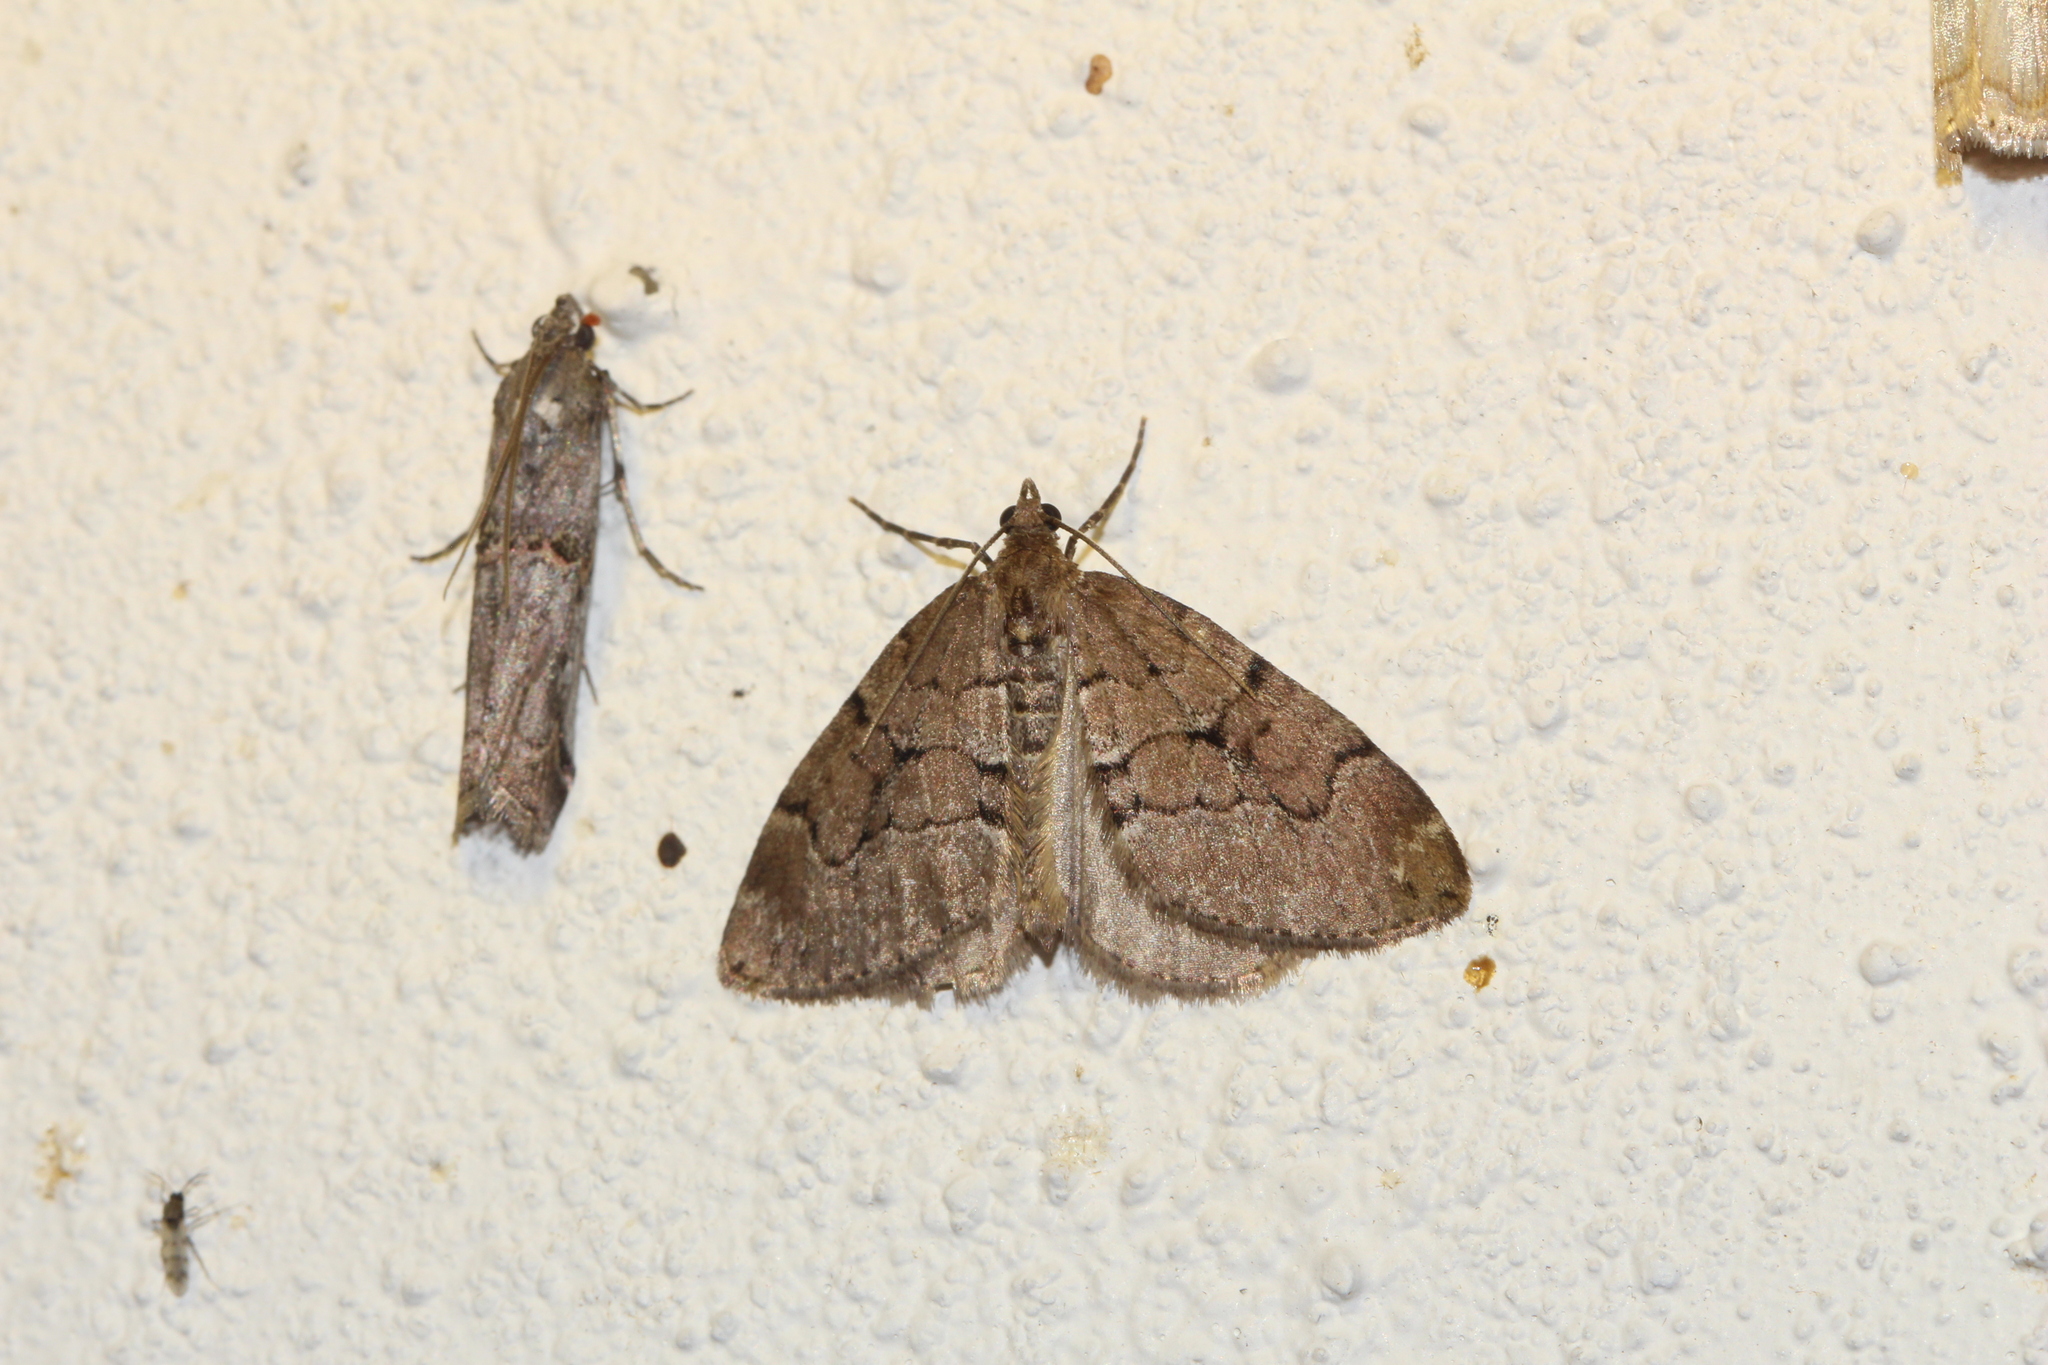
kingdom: Animalia
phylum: Arthropoda
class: Insecta
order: Lepidoptera
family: Geometridae
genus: Thera
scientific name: Thera cognata
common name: Chestnut-coloured carpet
